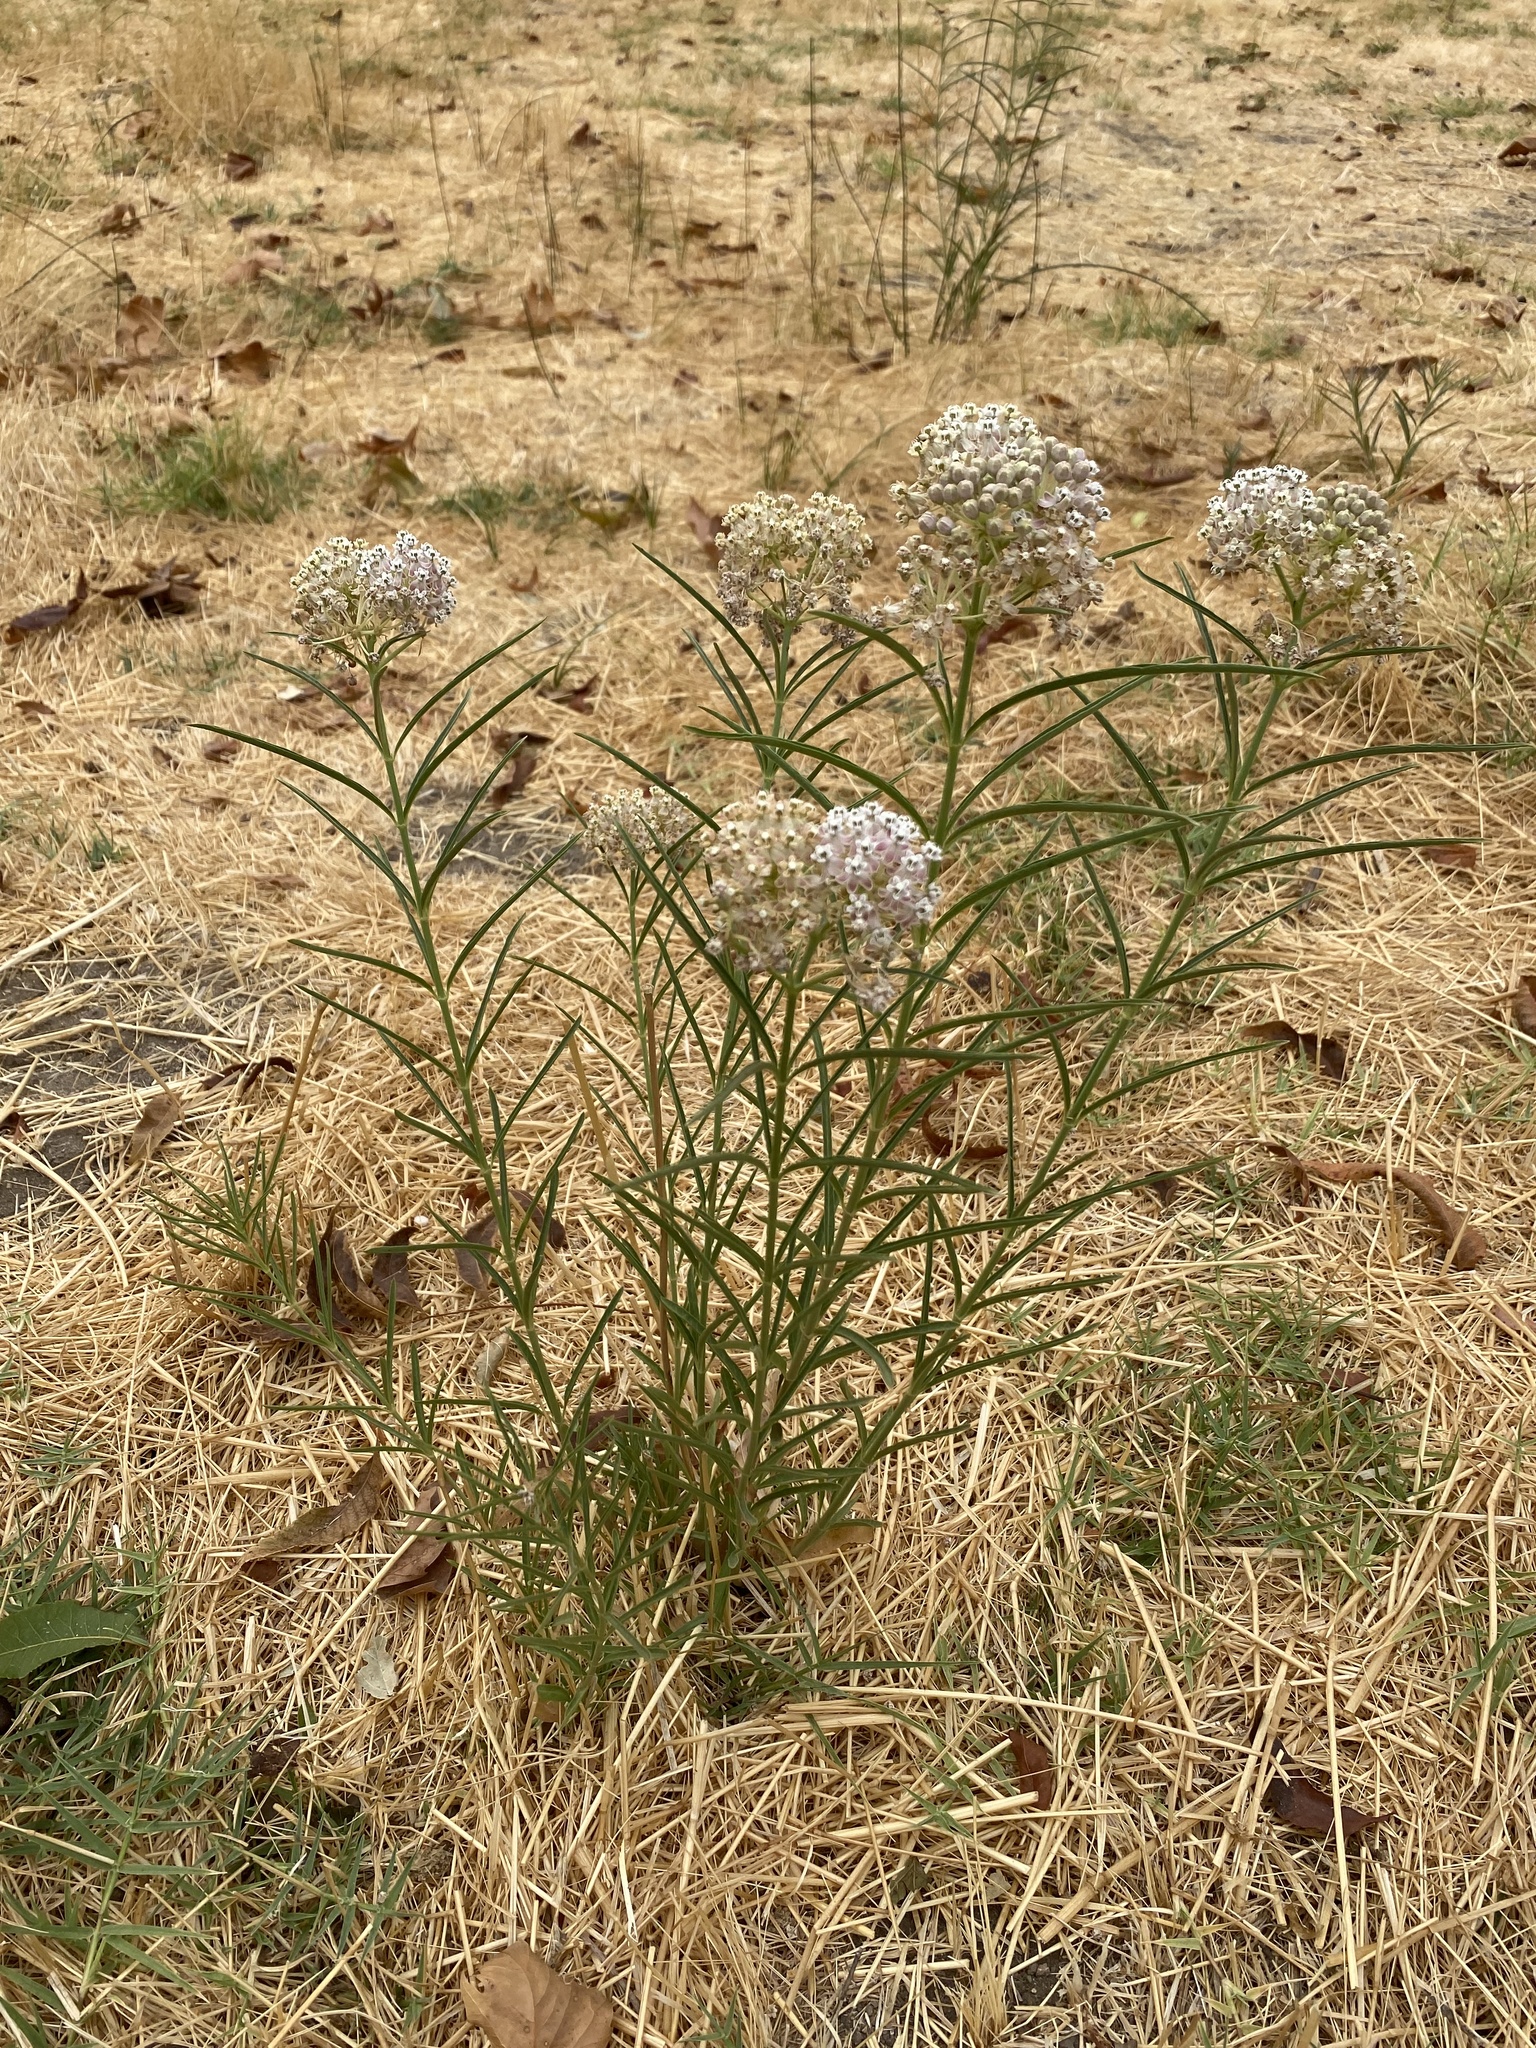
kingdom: Plantae
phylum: Tracheophyta
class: Magnoliopsida
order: Gentianales
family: Apocynaceae
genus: Asclepias
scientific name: Asclepias fascicularis
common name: Mexican milkweed
